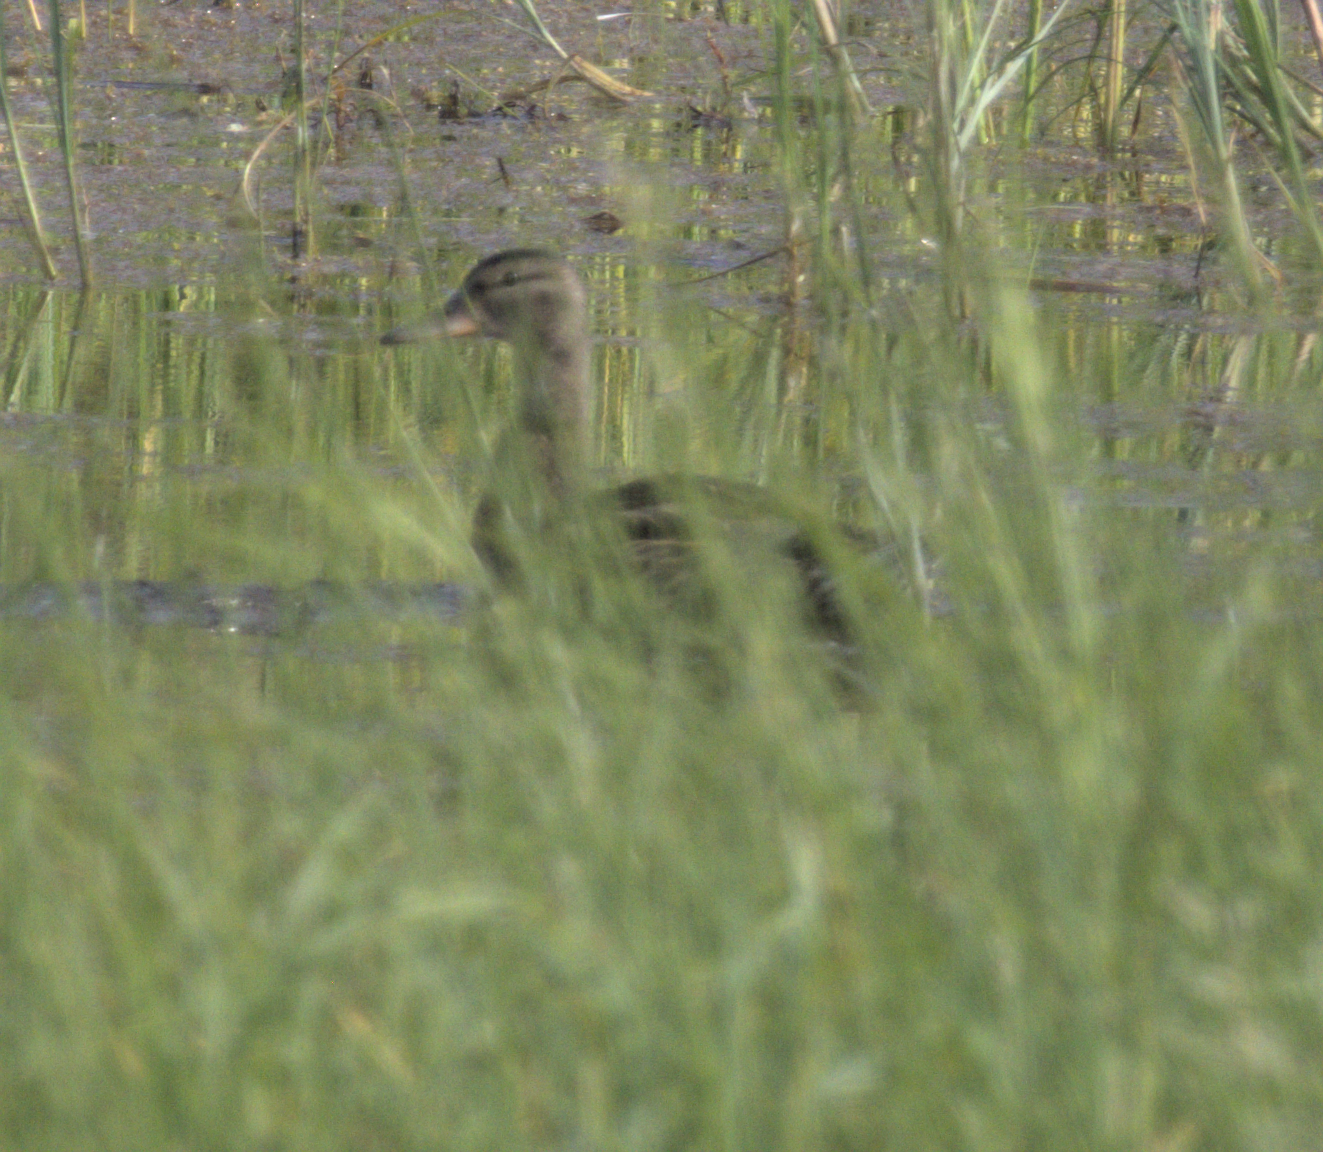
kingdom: Animalia
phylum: Chordata
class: Aves
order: Anseriformes
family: Anatidae
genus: Anas
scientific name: Anas platyrhynchos
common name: Mallard
